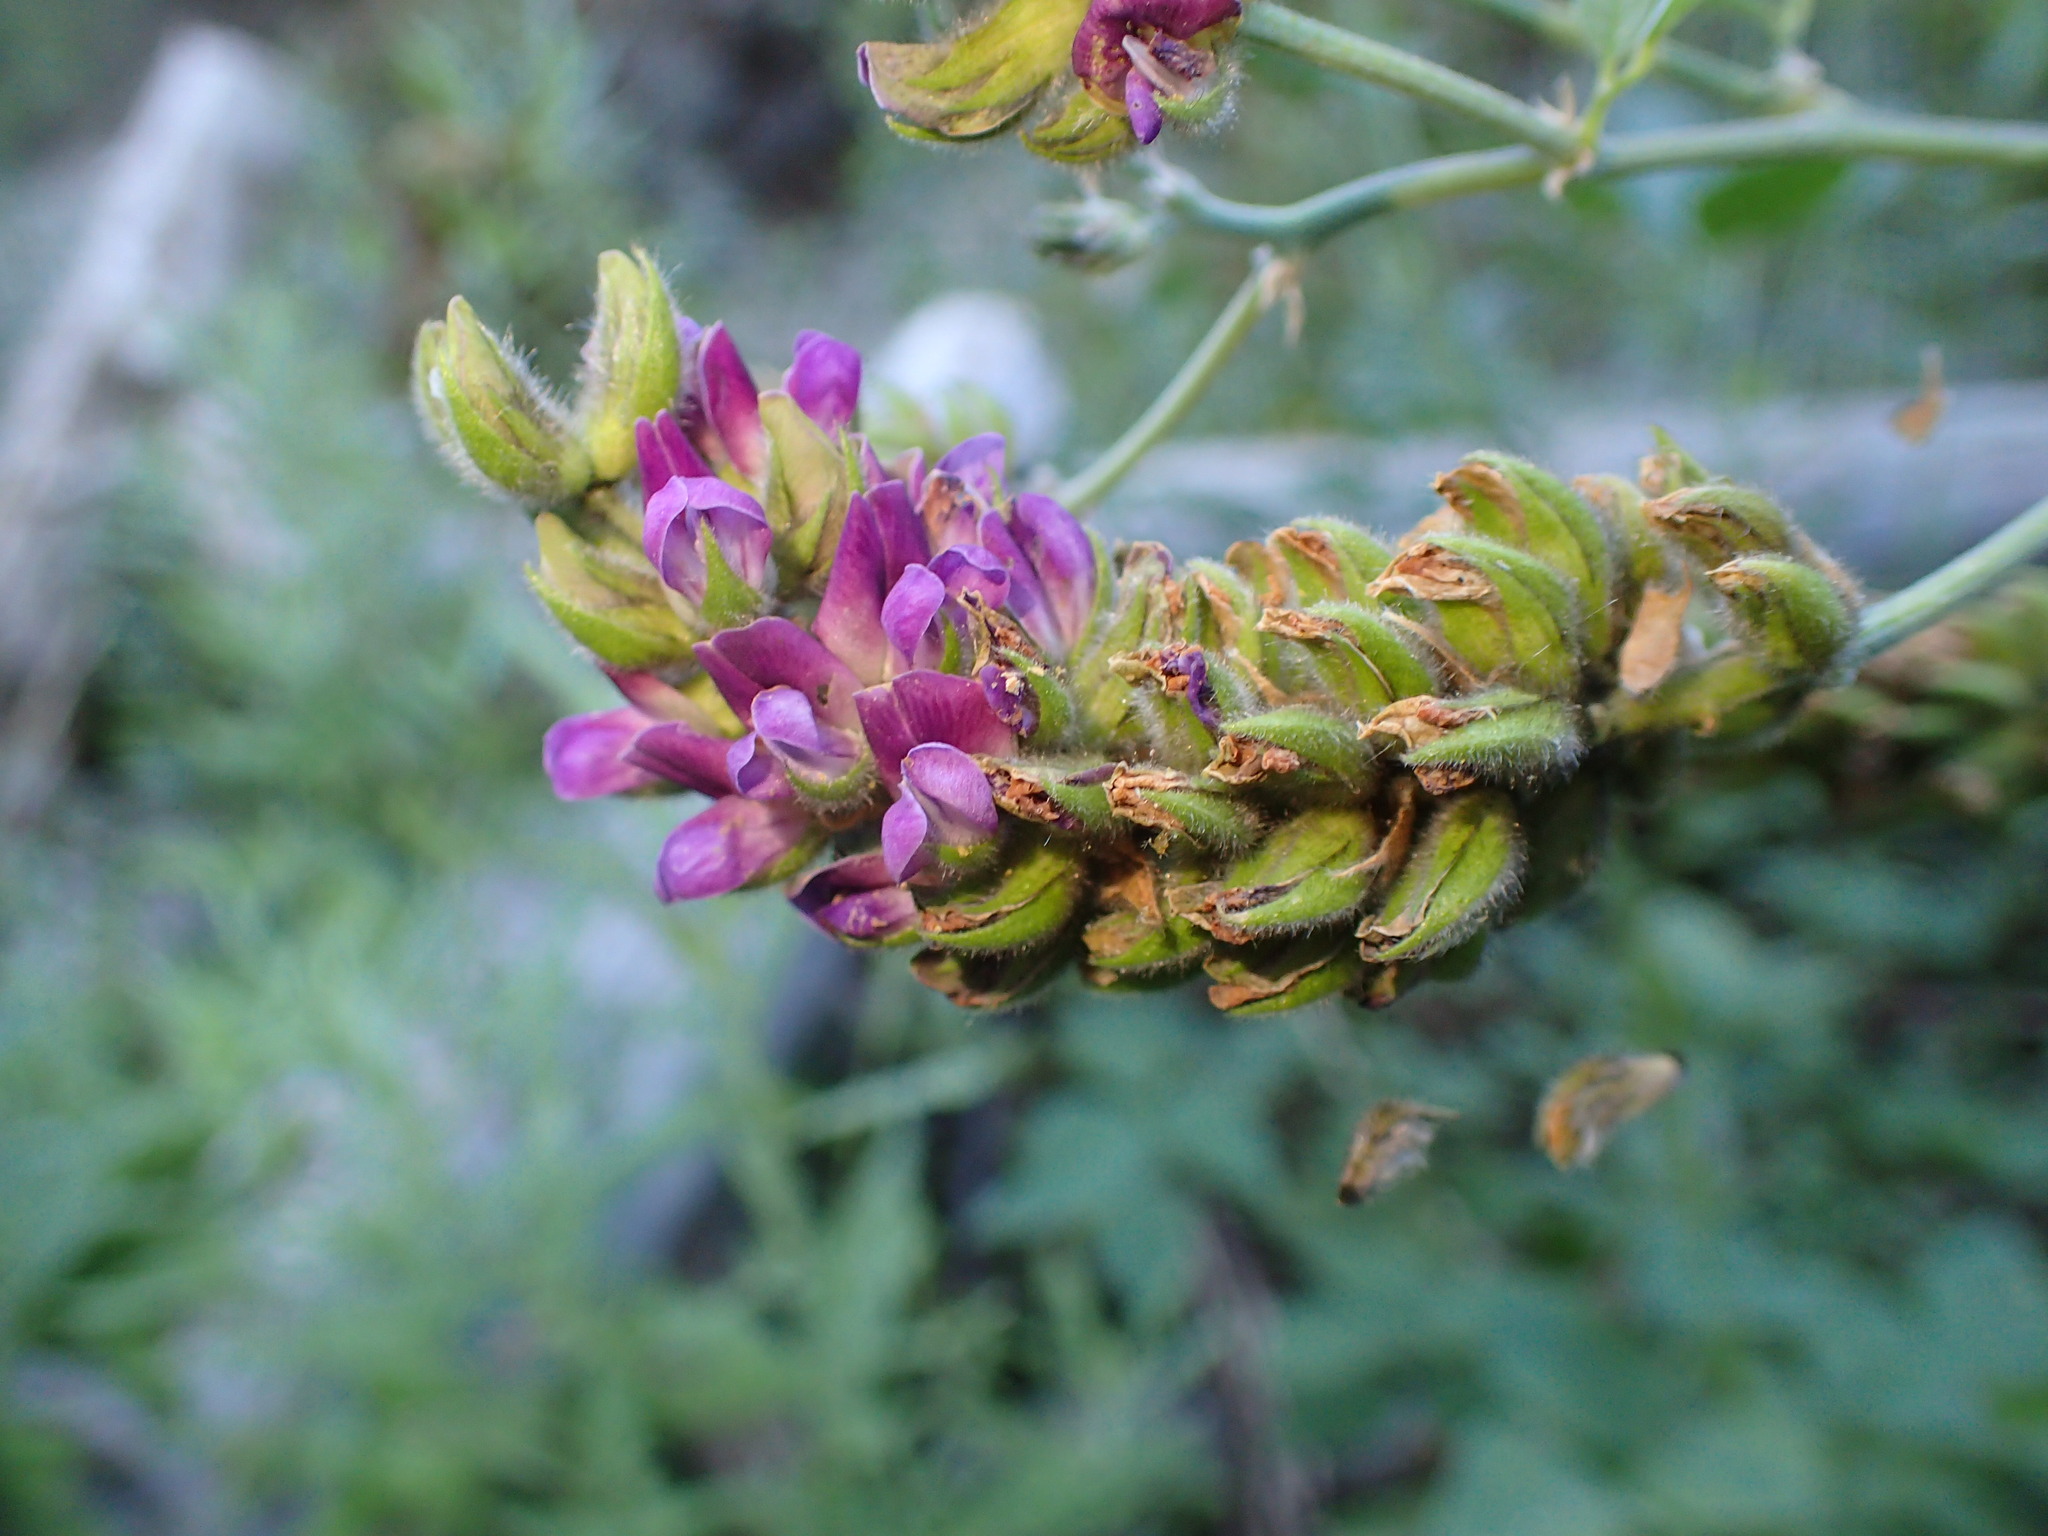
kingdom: Plantae
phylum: Tracheophyta
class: Magnoliopsida
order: Fabales
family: Fabaceae
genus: Hoita
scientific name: Hoita macrostachya
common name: Leatherroot
